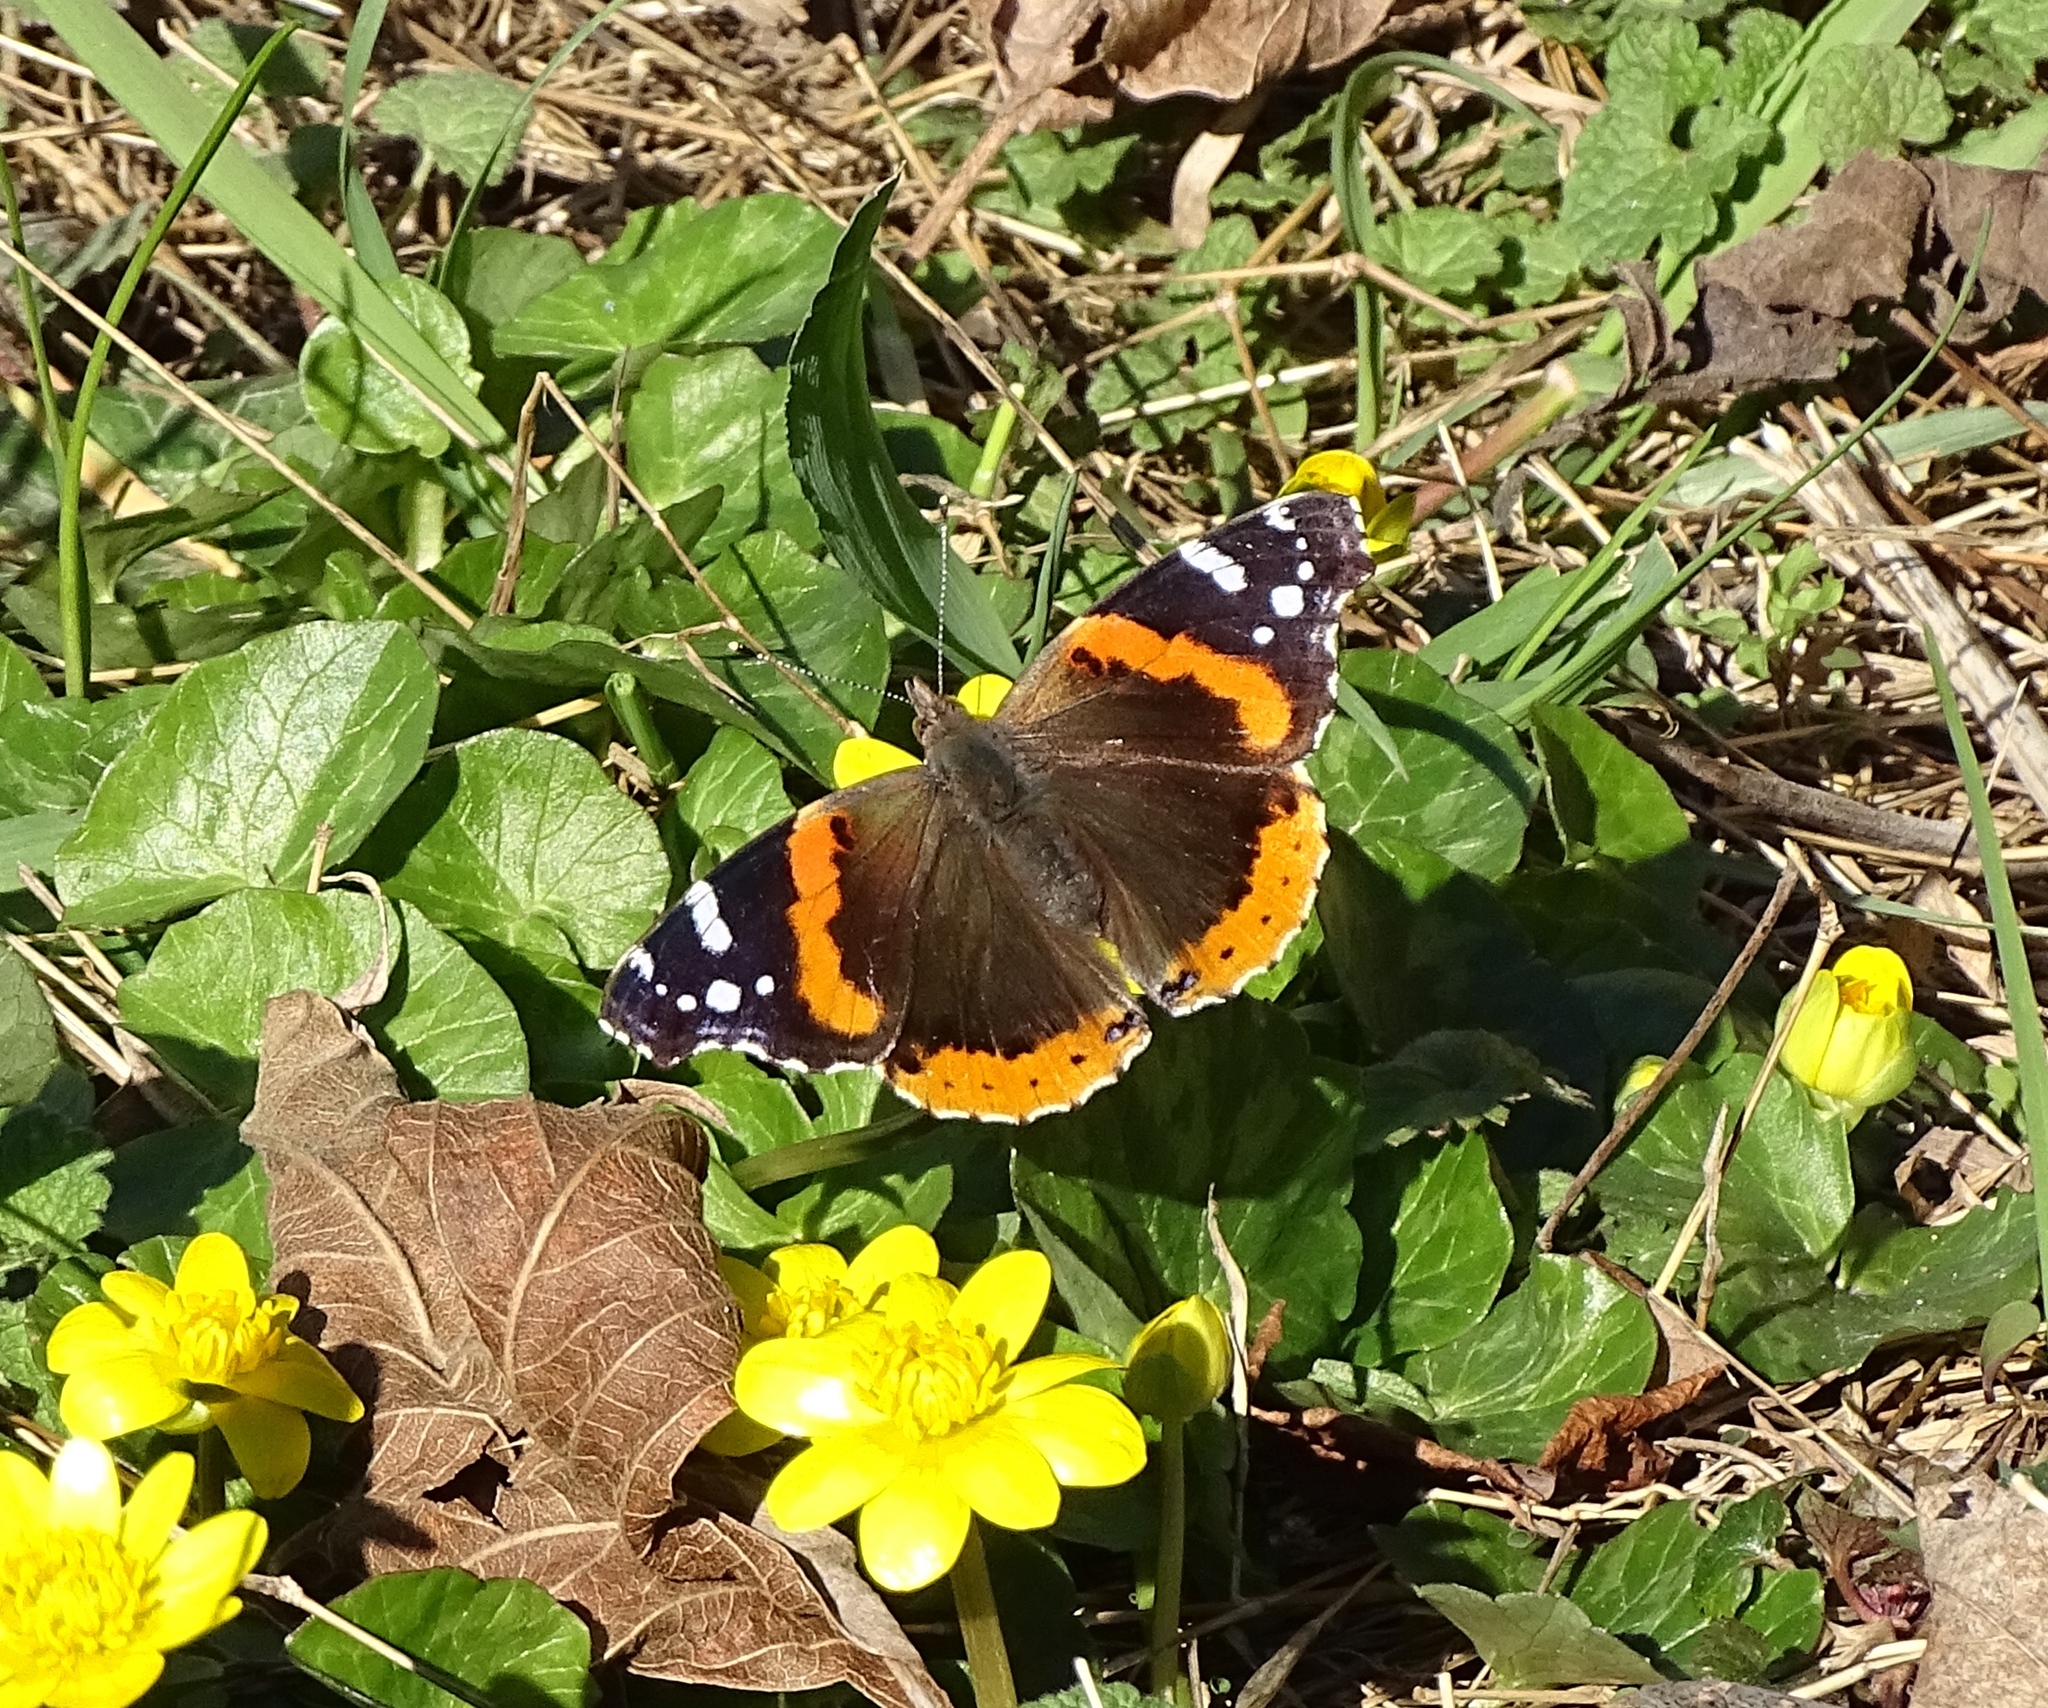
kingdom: Animalia
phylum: Arthropoda
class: Insecta
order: Lepidoptera
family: Nymphalidae
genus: Vanessa
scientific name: Vanessa atalanta
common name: Red admiral
